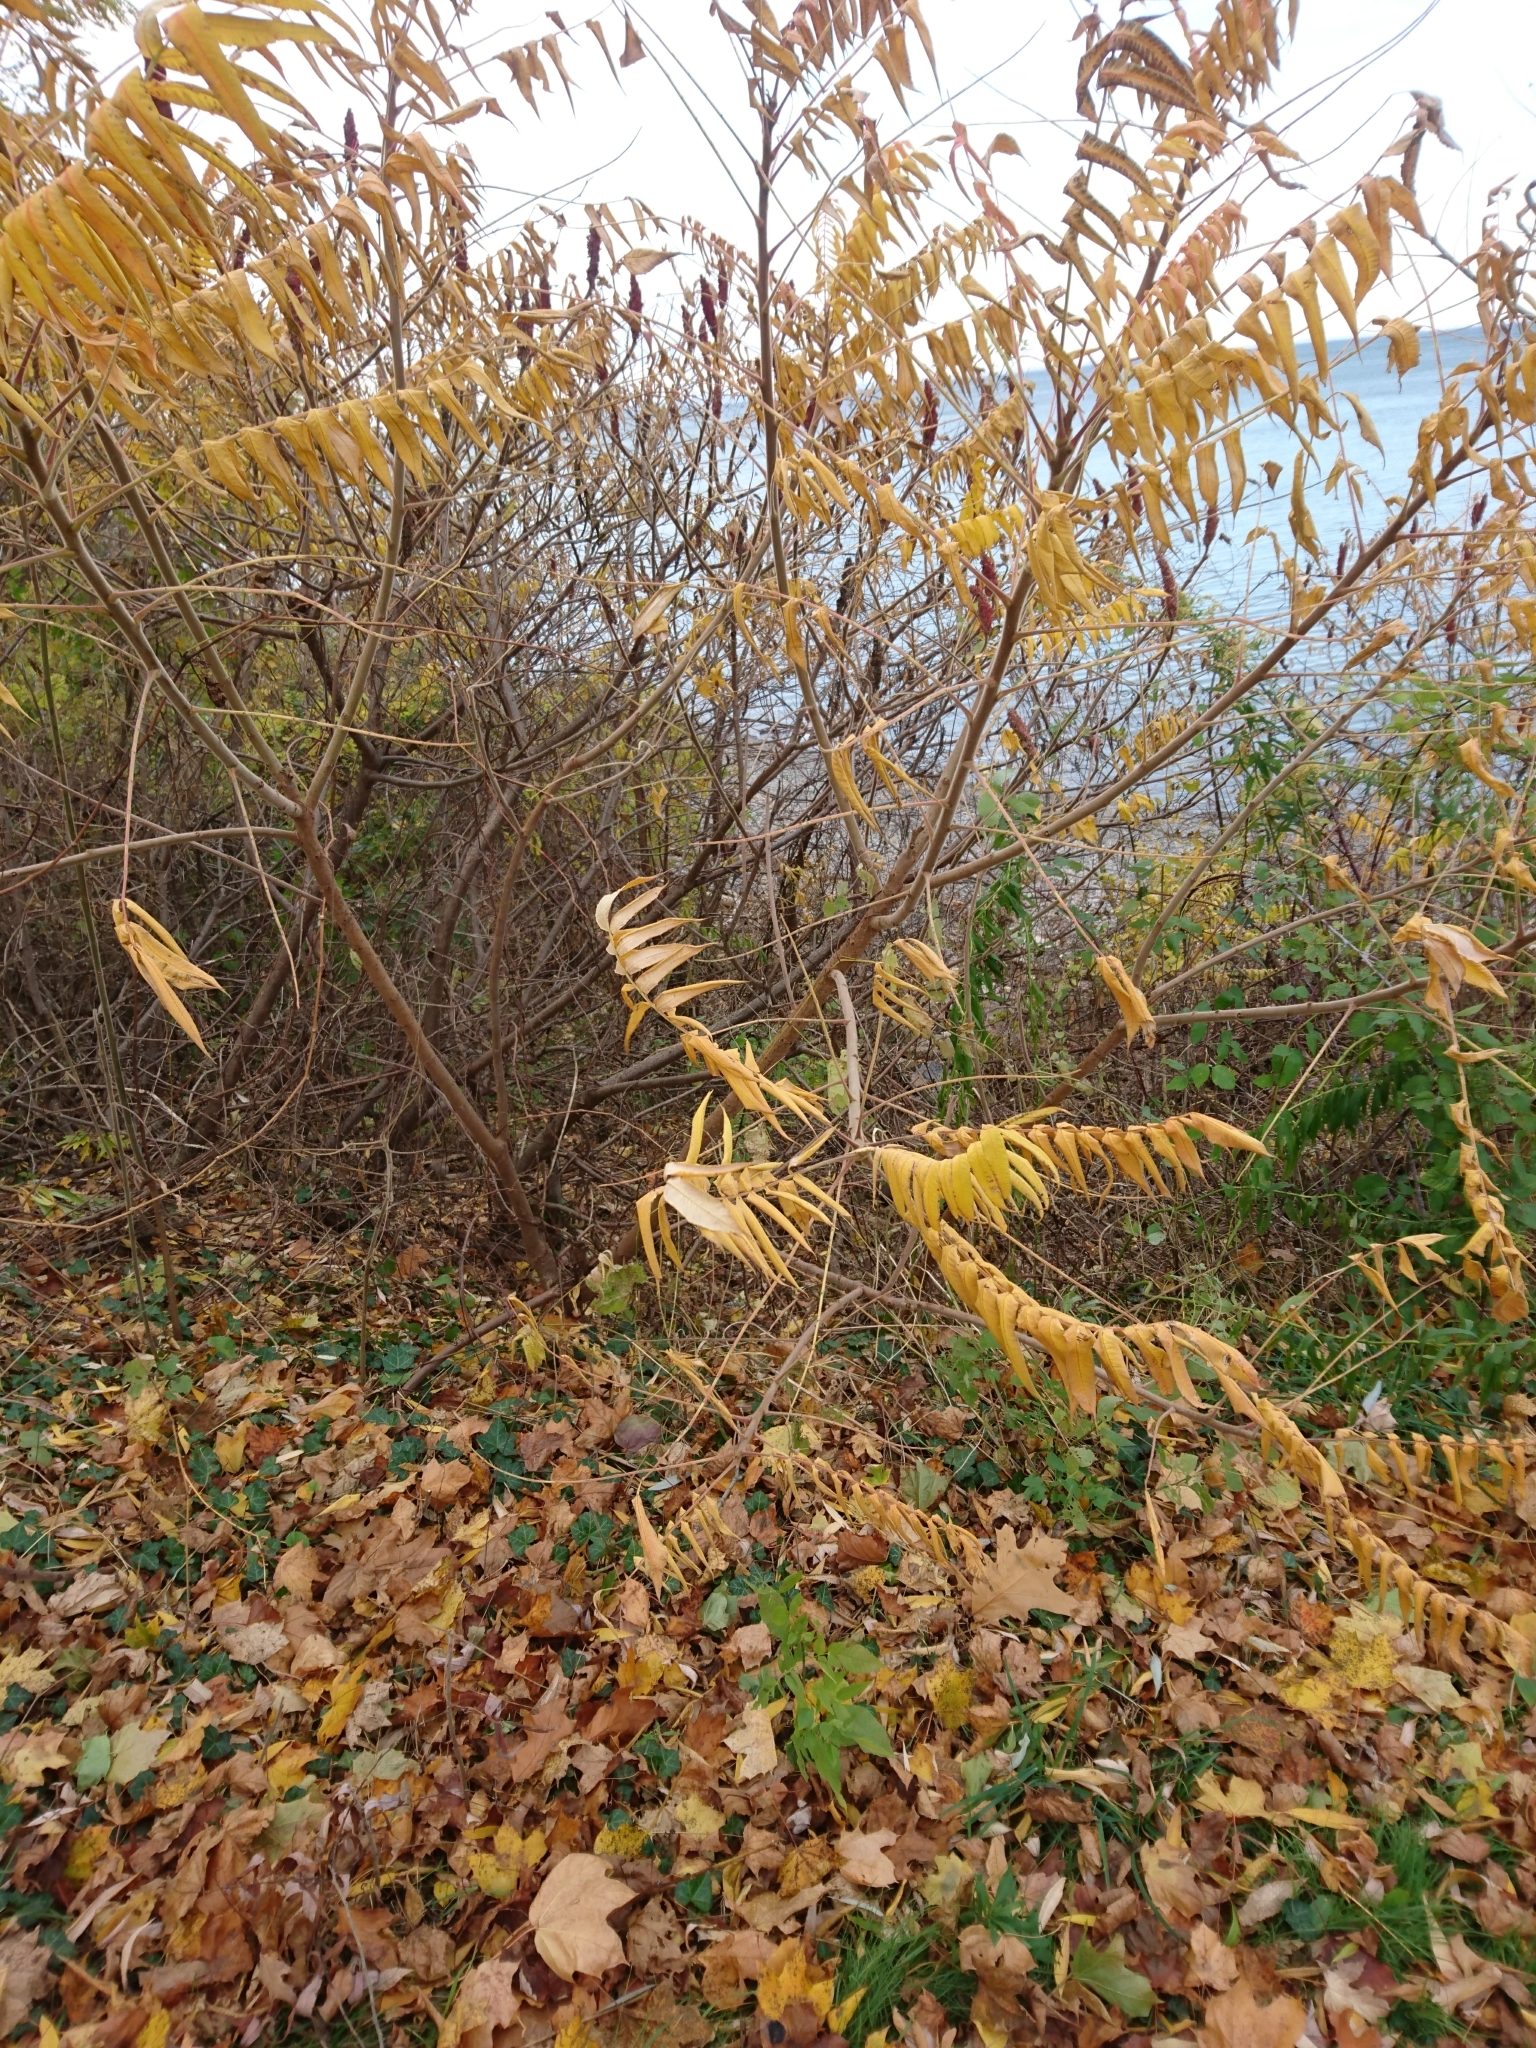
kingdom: Plantae
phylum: Tracheophyta
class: Magnoliopsida
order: Sapindales
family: Anacardiaceae
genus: Rhus
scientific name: Rhus typhina
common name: Staghorn sumac
